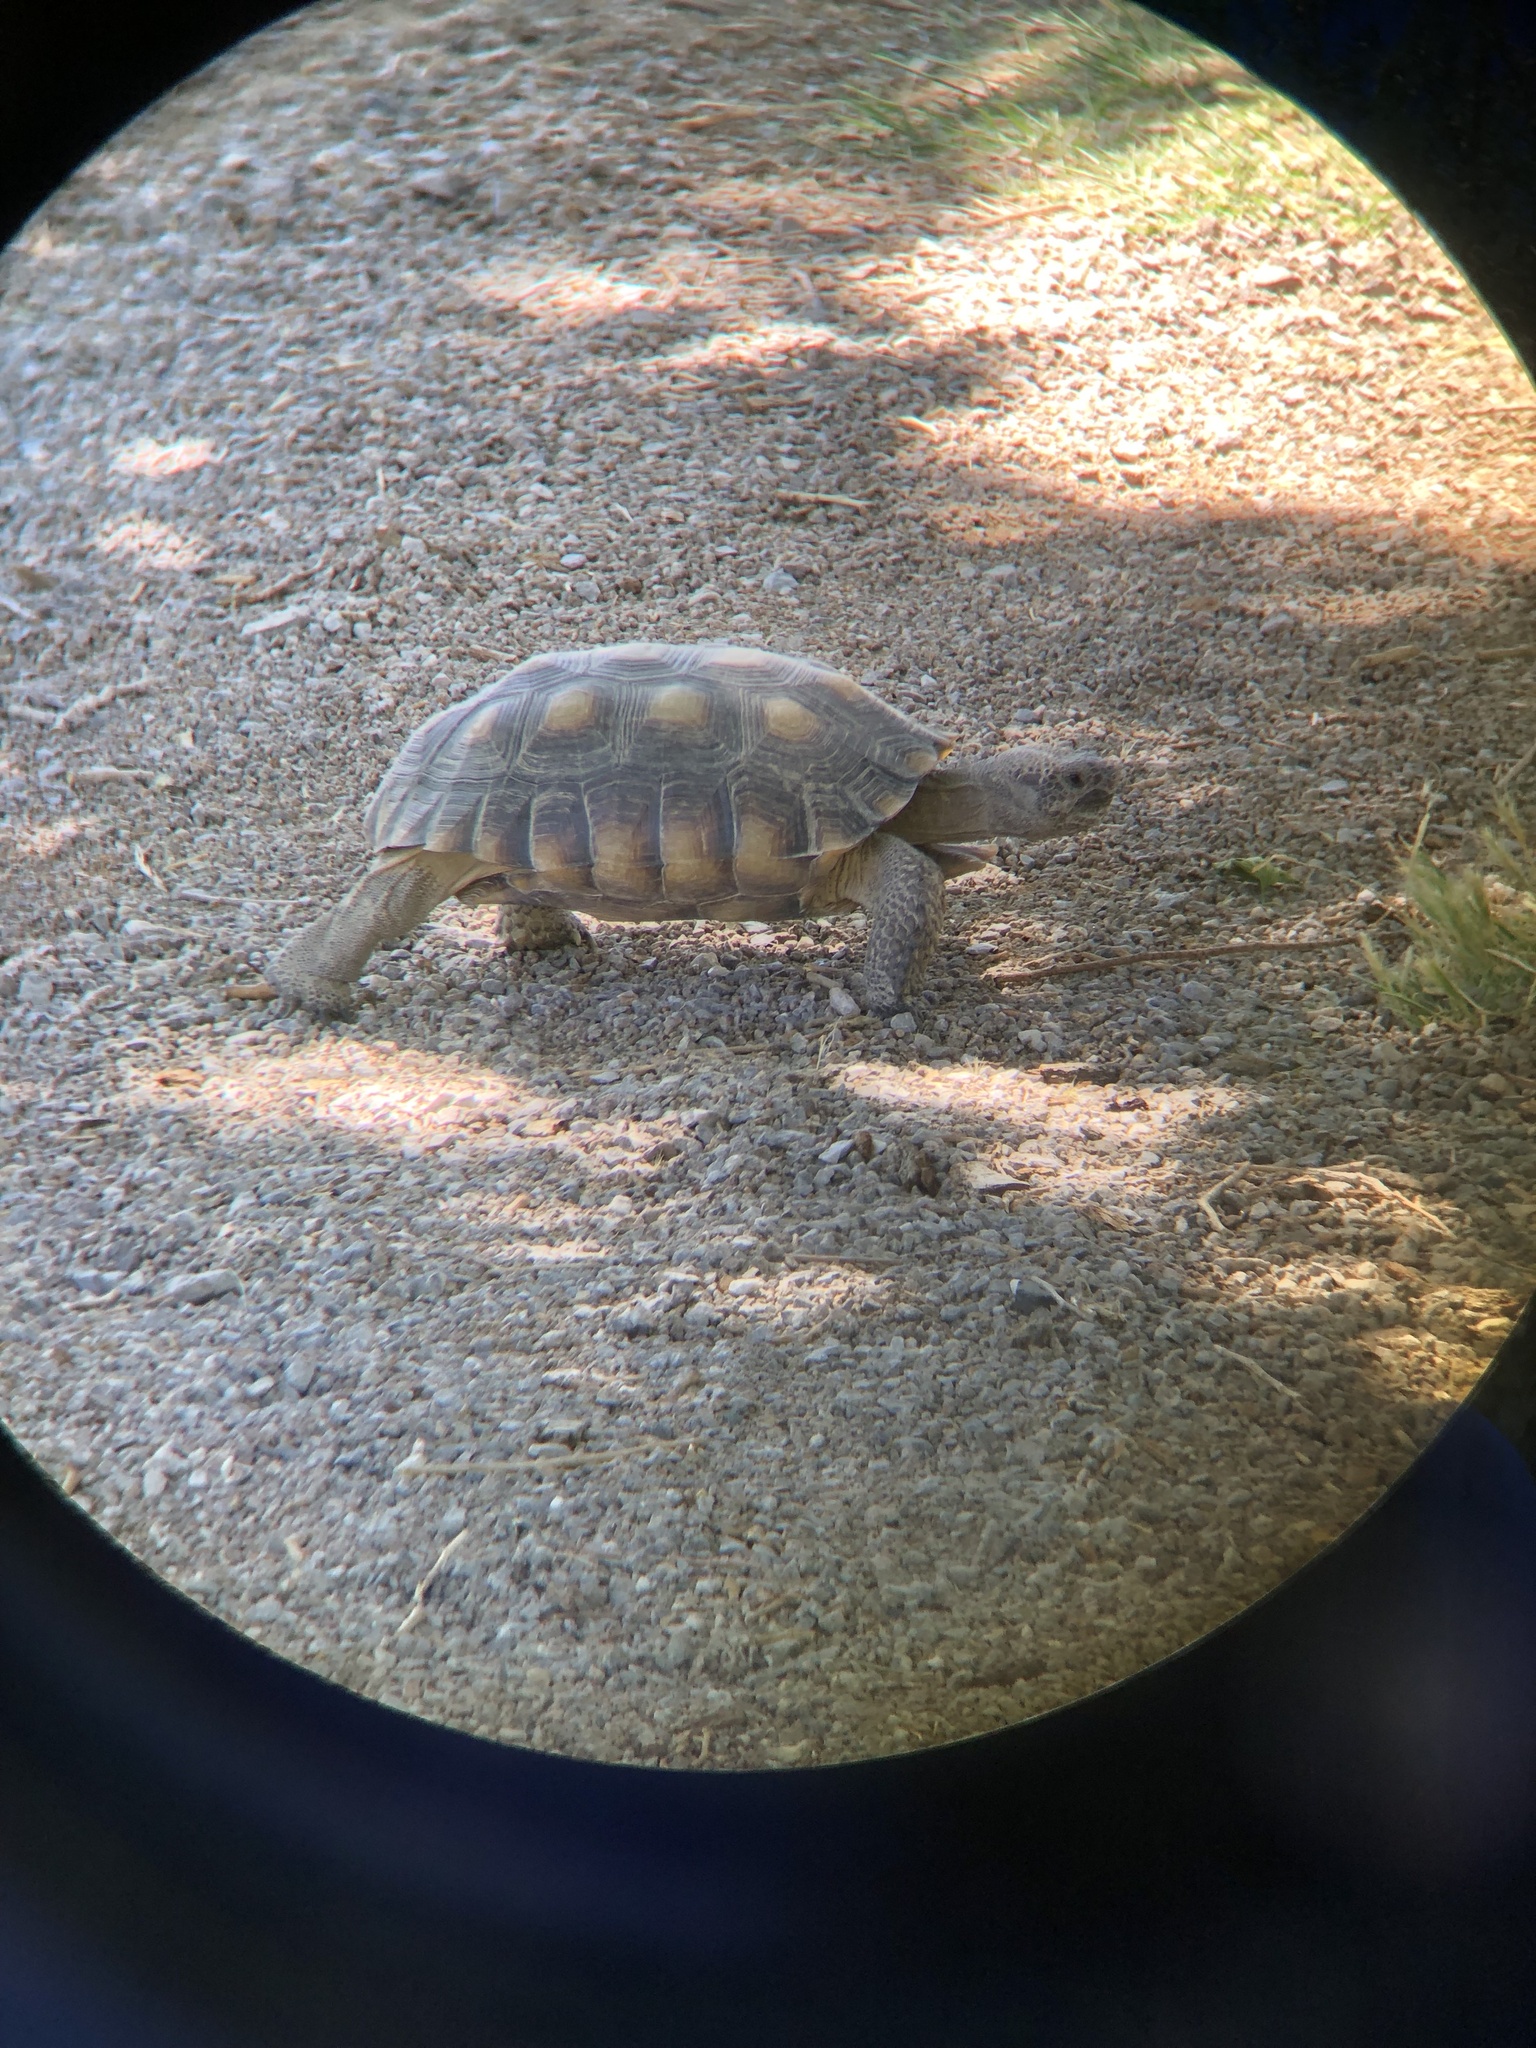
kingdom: Animalia
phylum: Chordata
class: Testudines
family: Testudinidae
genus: Gopherus
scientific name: Gopherus agassizii
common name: Mojave desert tortoise
